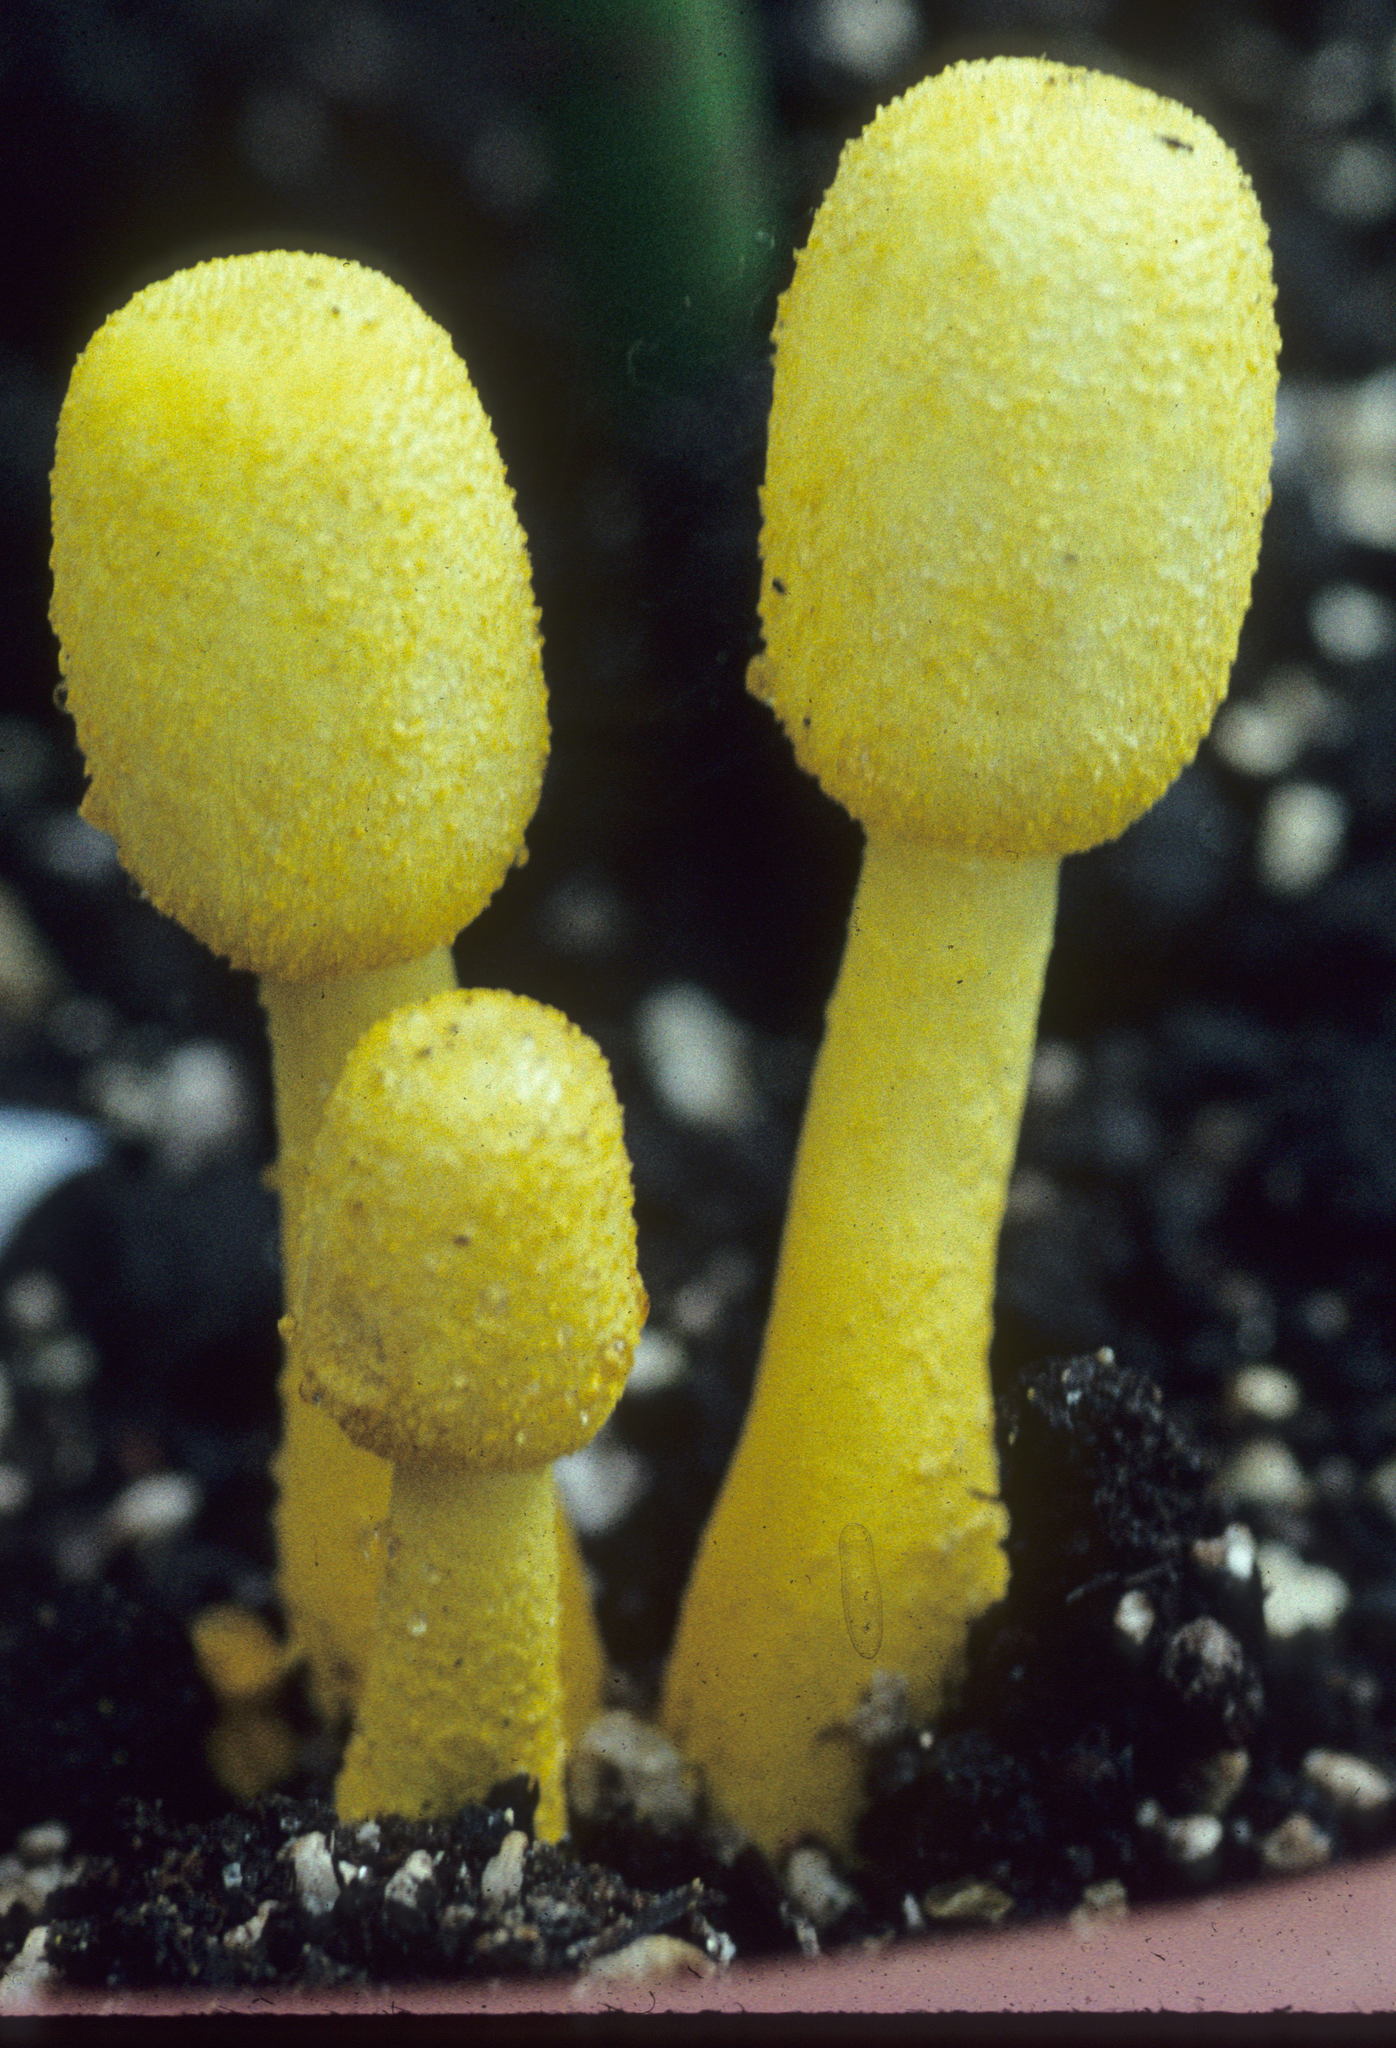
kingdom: Fungi
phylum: Basidiomycota
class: Agaricomycetes
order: Agaricales
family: Agaricaceae
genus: Leucocoprinus
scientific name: Leucocoprinus birnbaumii
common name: Plantpot dapperling
